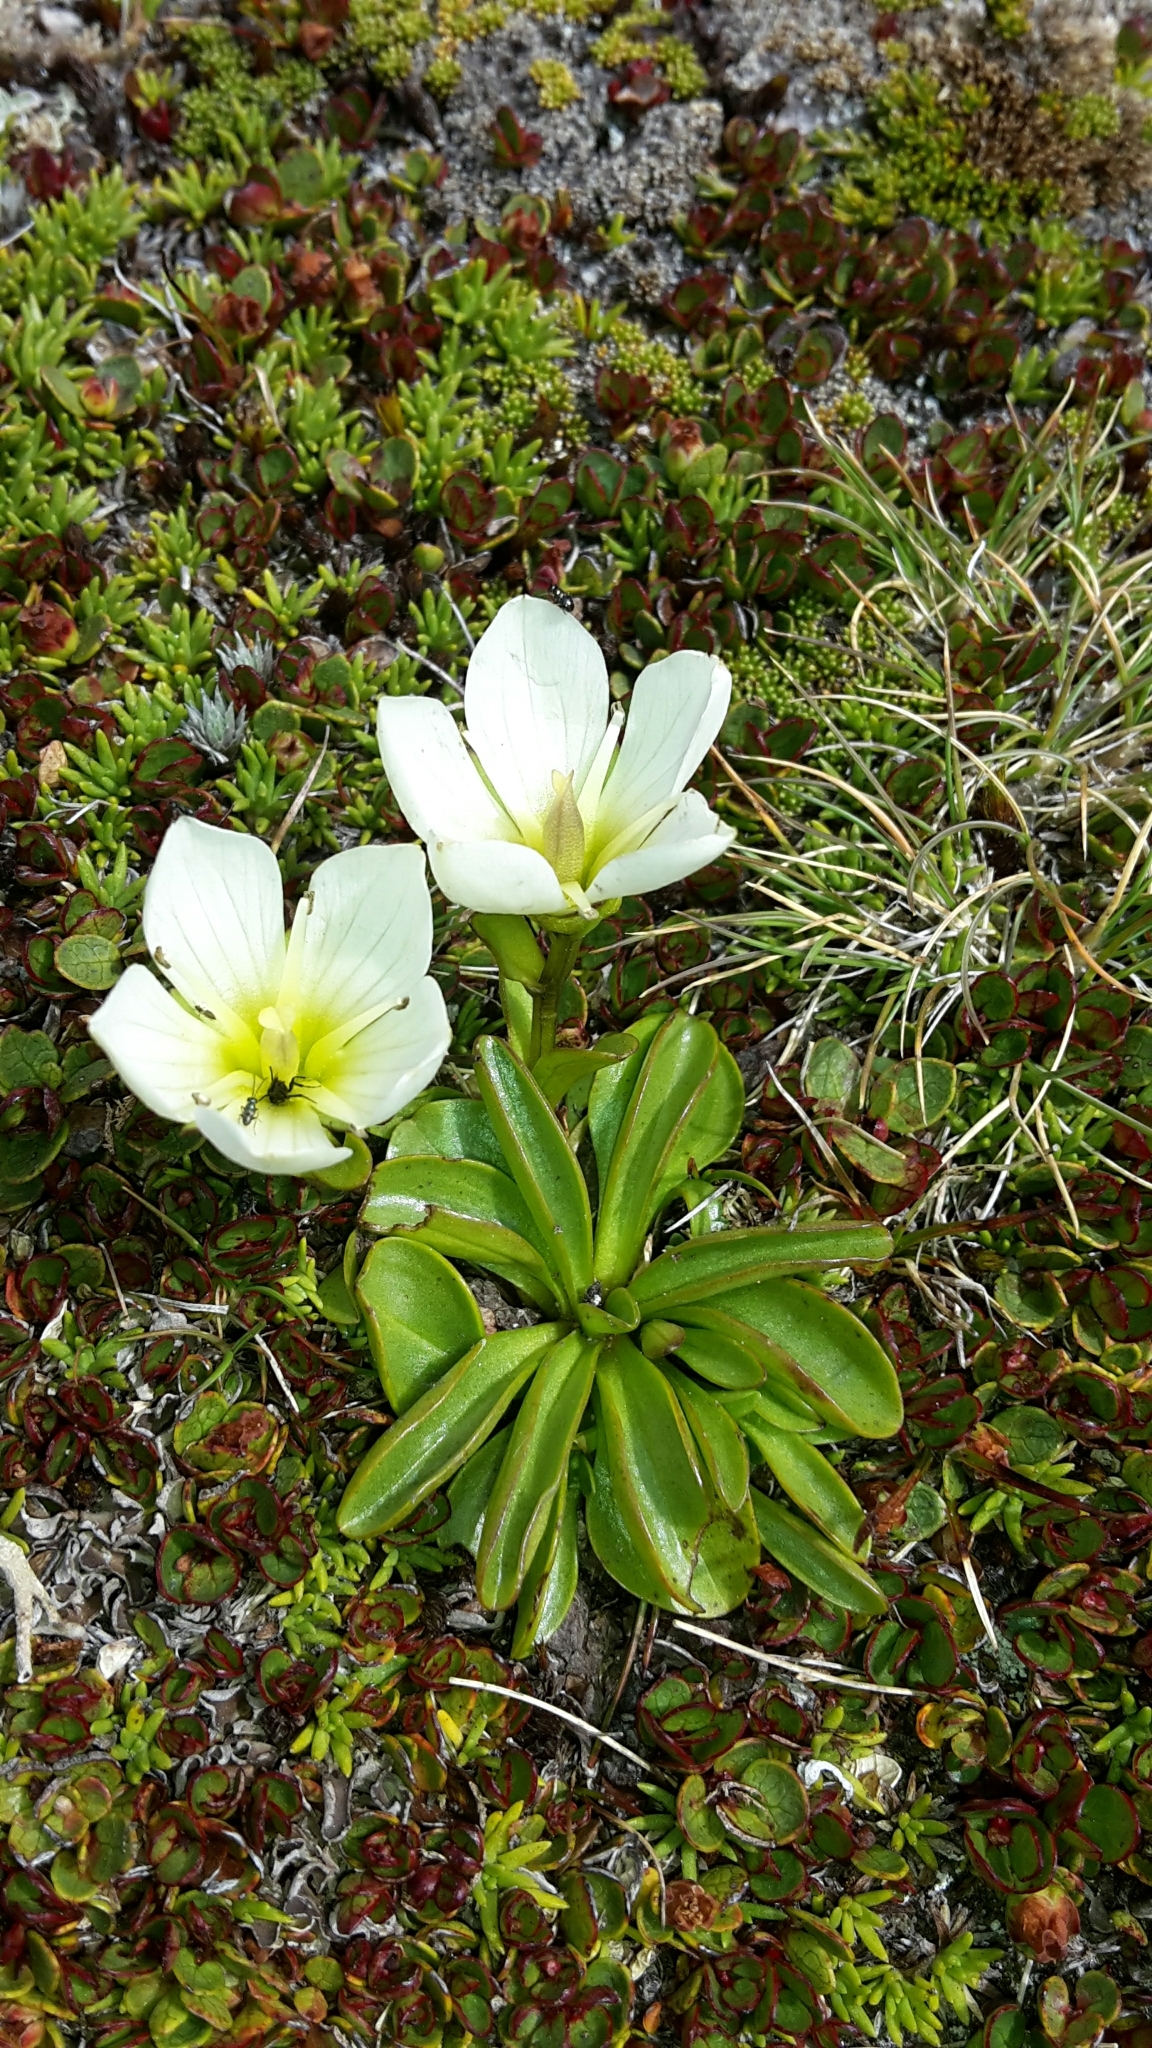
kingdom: Plantae
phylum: Tracheophyta
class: Magnoliopsida
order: Gentianales
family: Gentianaceae
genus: Gentianella
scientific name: Gentianella bellidifolia
